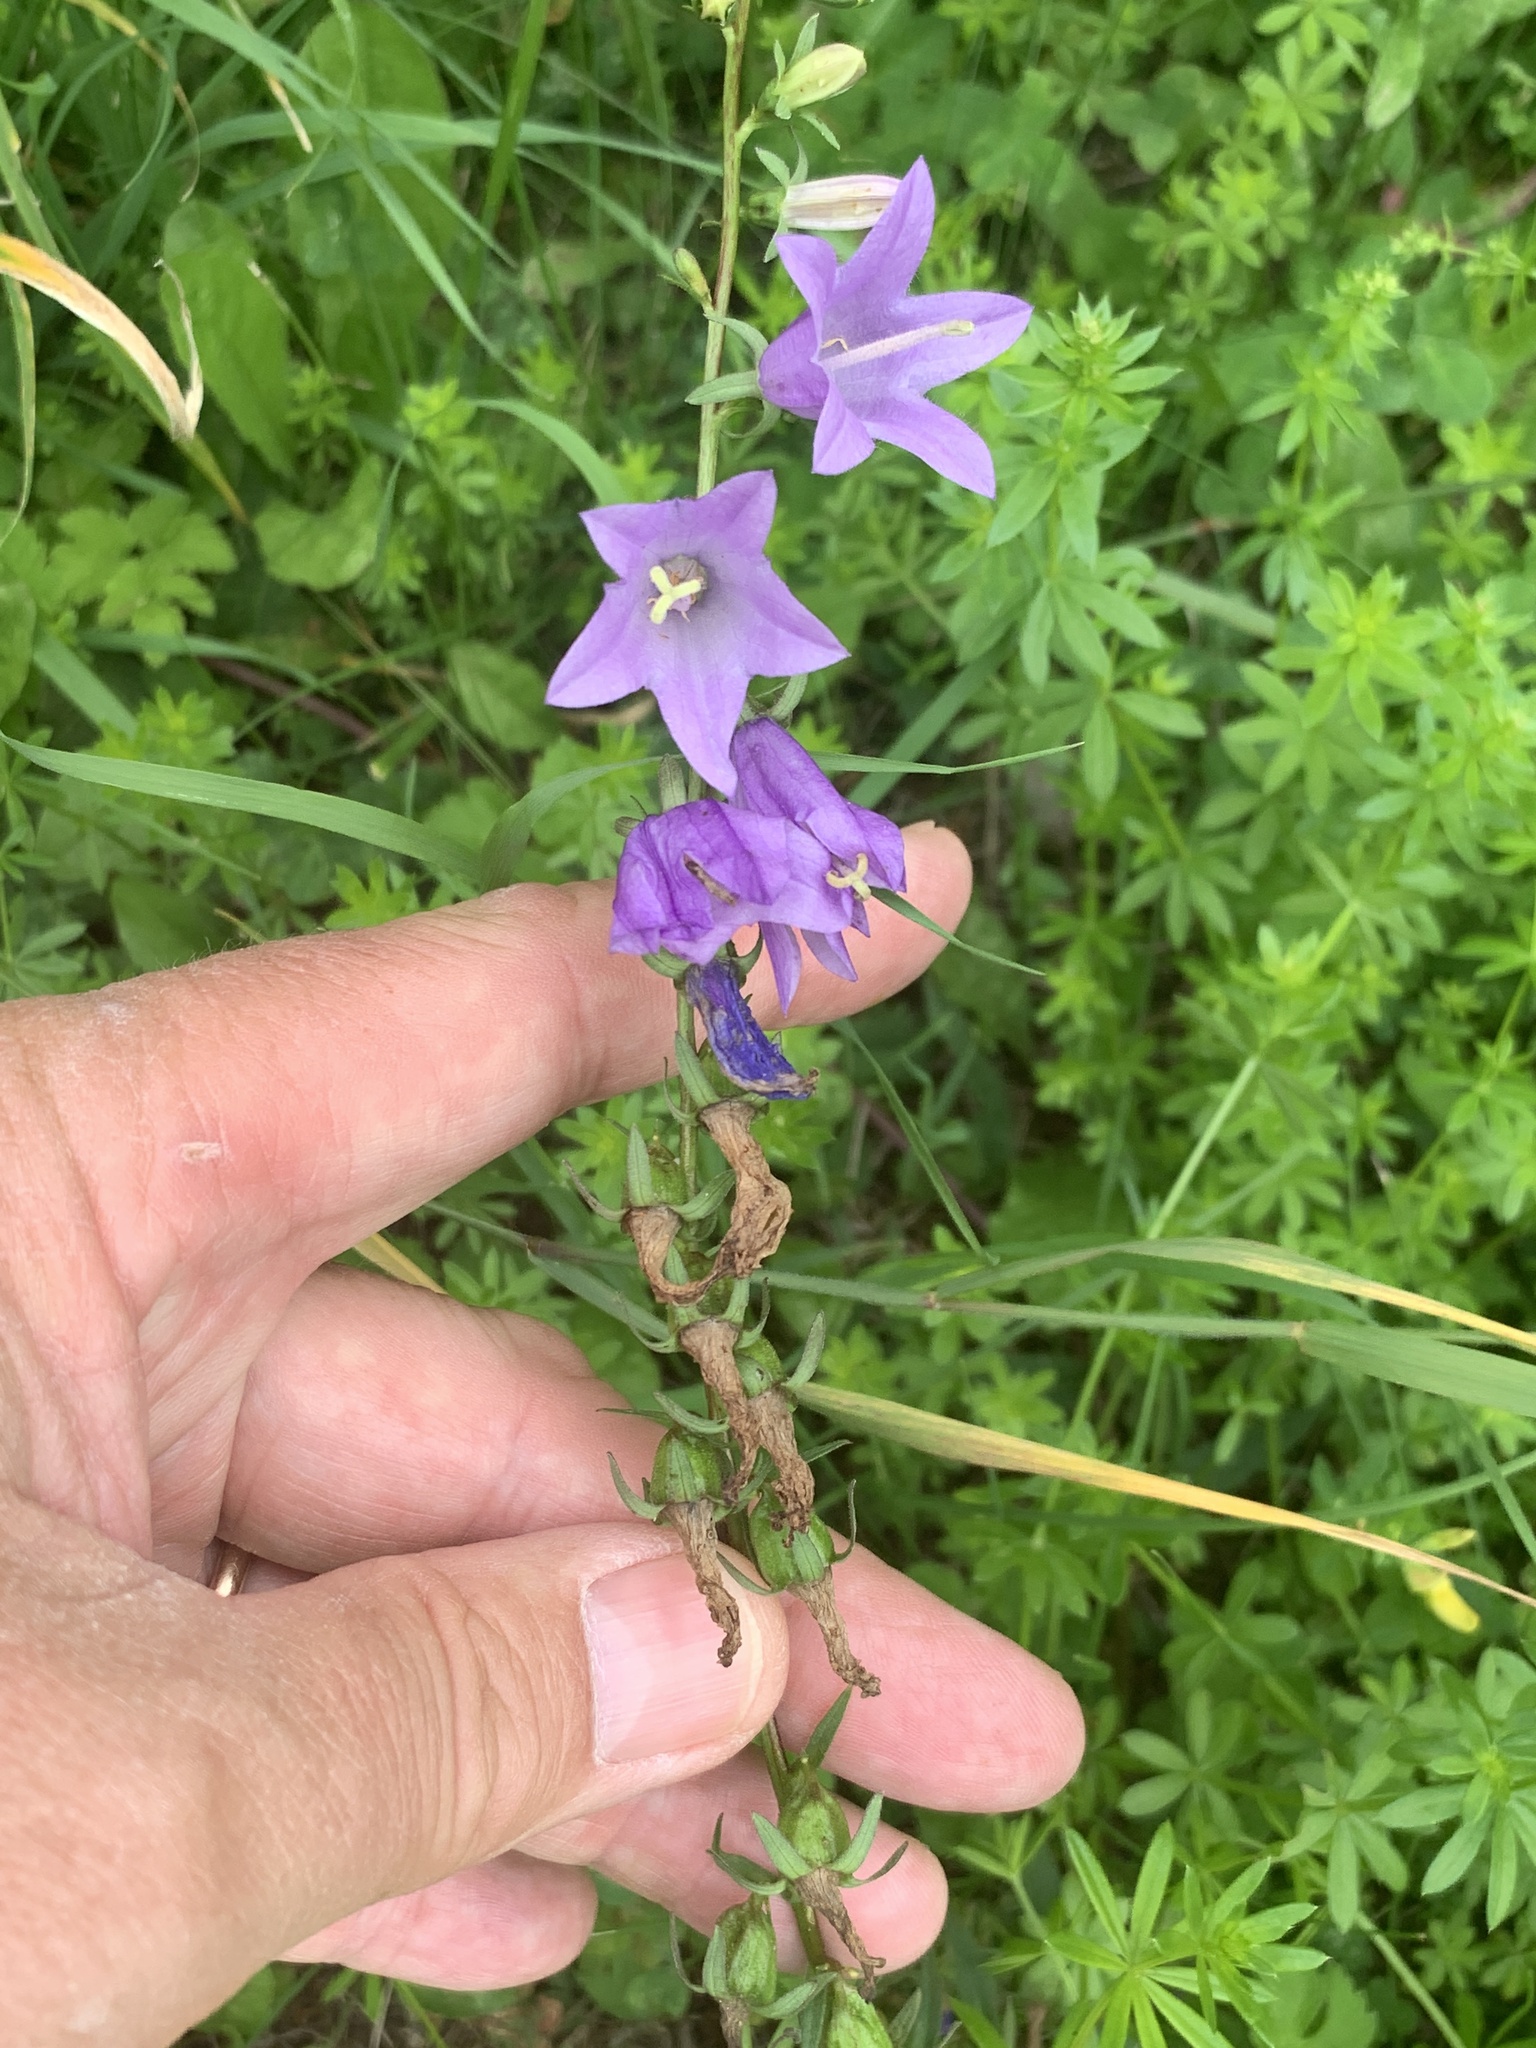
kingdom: Plantae
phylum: Tracheophyta
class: Magnoliopsida
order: Asterales
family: Campanulaceae
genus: Campanula
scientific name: Campanula rapunculoides
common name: Creeping bellflower
